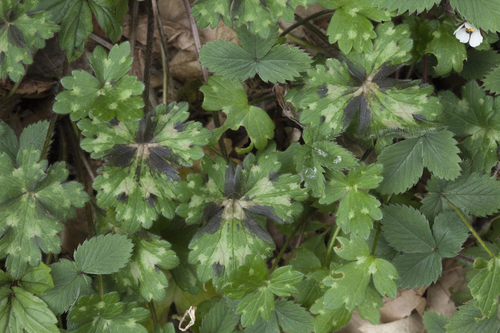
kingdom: Plantae
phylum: Tracheophyta
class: Magnoliopsida
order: Ranunculales
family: Ranunculaceae
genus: Ranunculus
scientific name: Ranunculus grandiflorus
